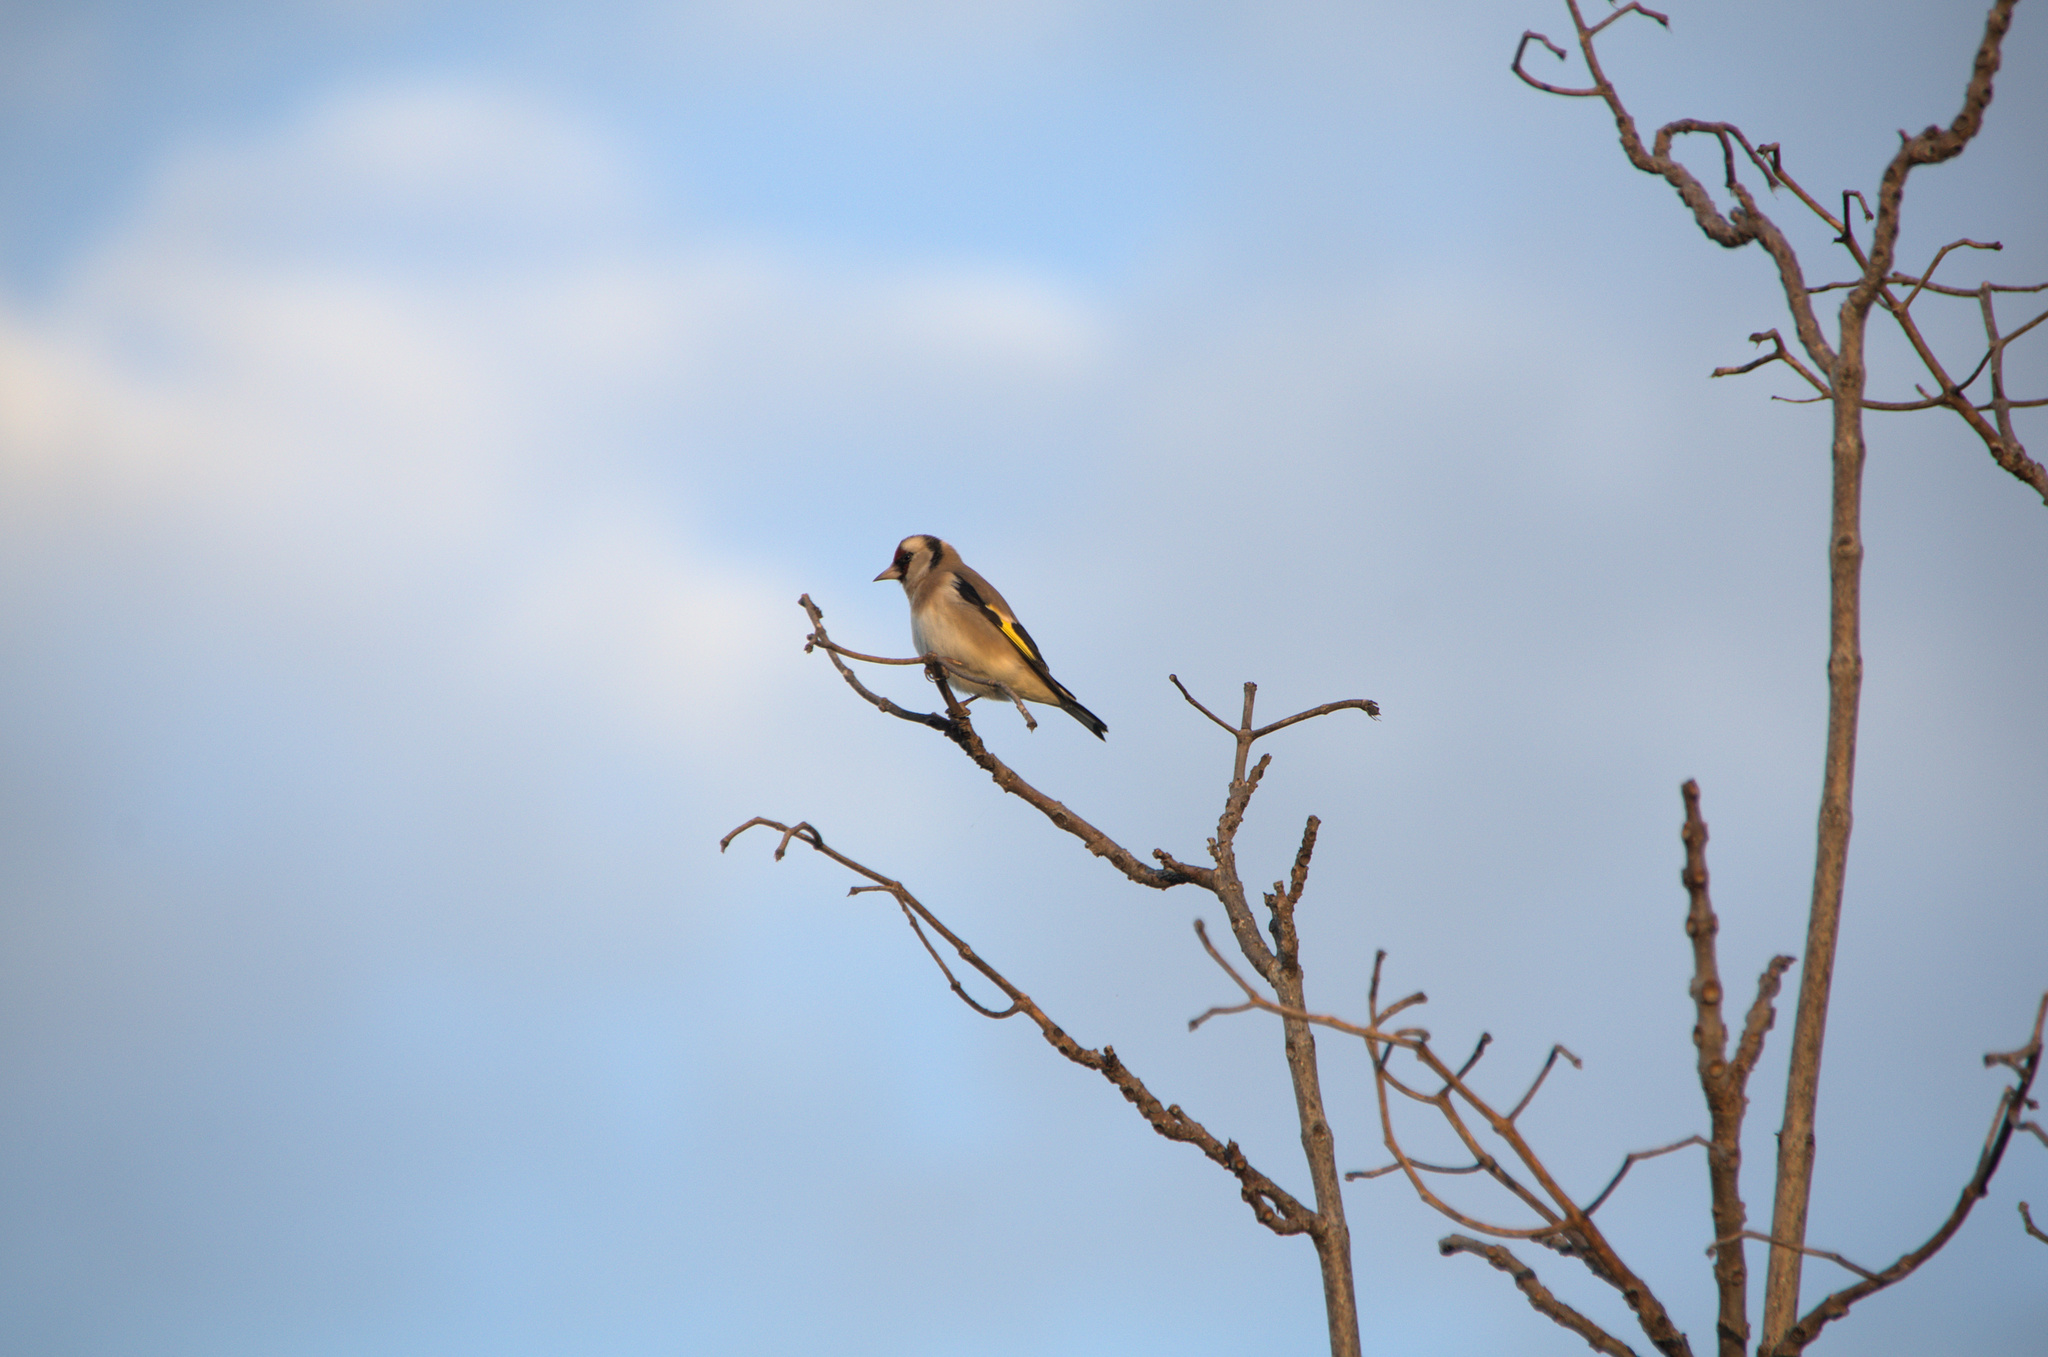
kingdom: Animalia
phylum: Chordata
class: Aves
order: Passeriformes
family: Fringillidae
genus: Carduelis
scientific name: Carduelis carduelis
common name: European goldfinch
